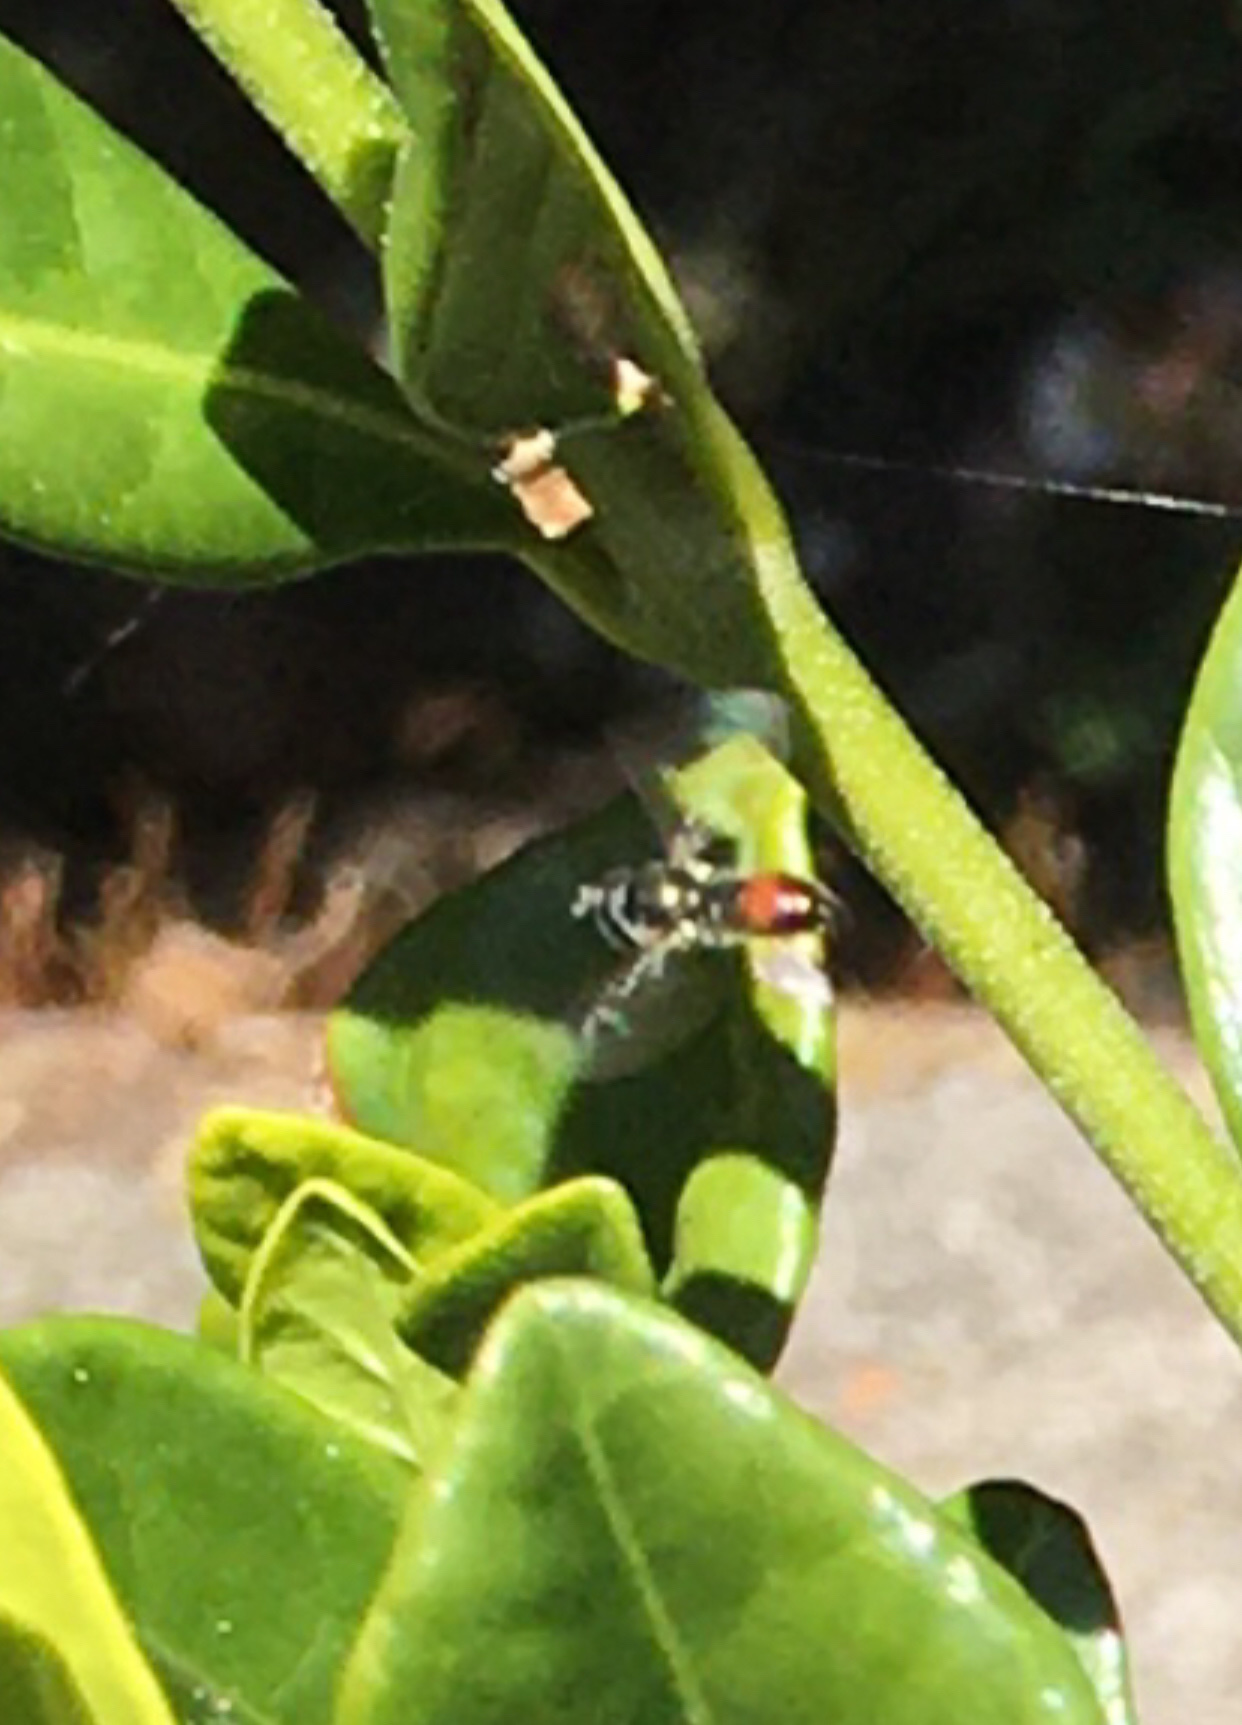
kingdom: Animalia
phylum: Arthropoda
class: Insecta
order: Diptera
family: Syrphidae
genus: Paragus
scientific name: Paragus haemorrhous
